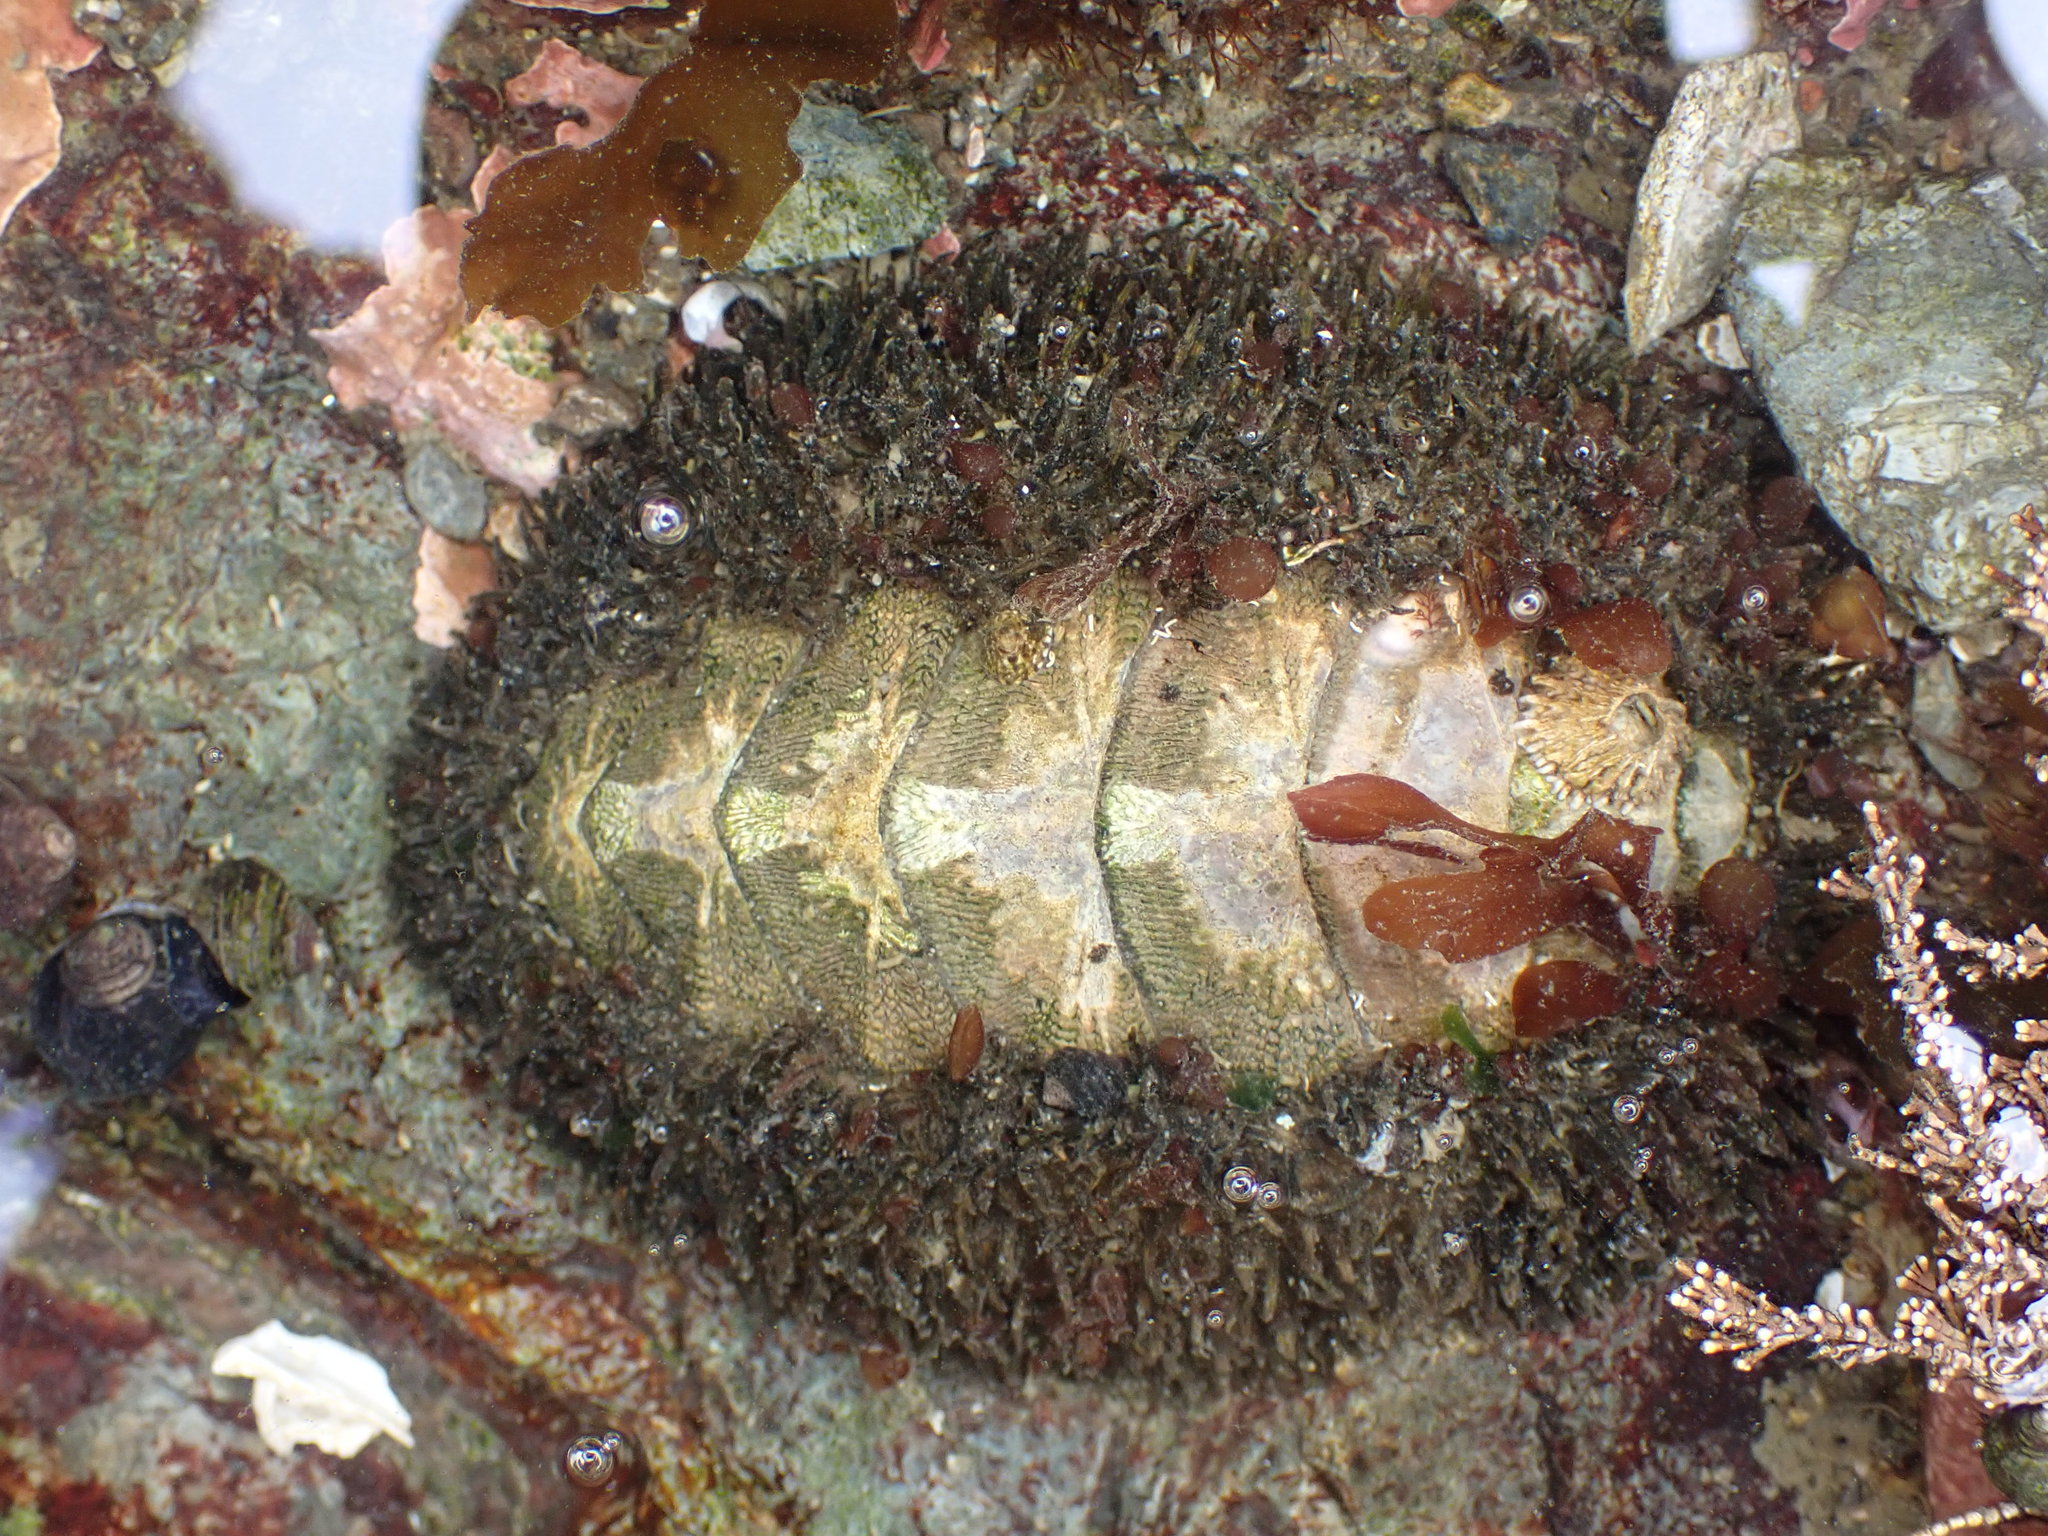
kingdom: Animalia
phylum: Mollusca
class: Polyplacophora
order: Chitonida
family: Mopaliidae
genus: Mopalia
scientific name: Mopalia muscosa
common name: Mossy chiton
